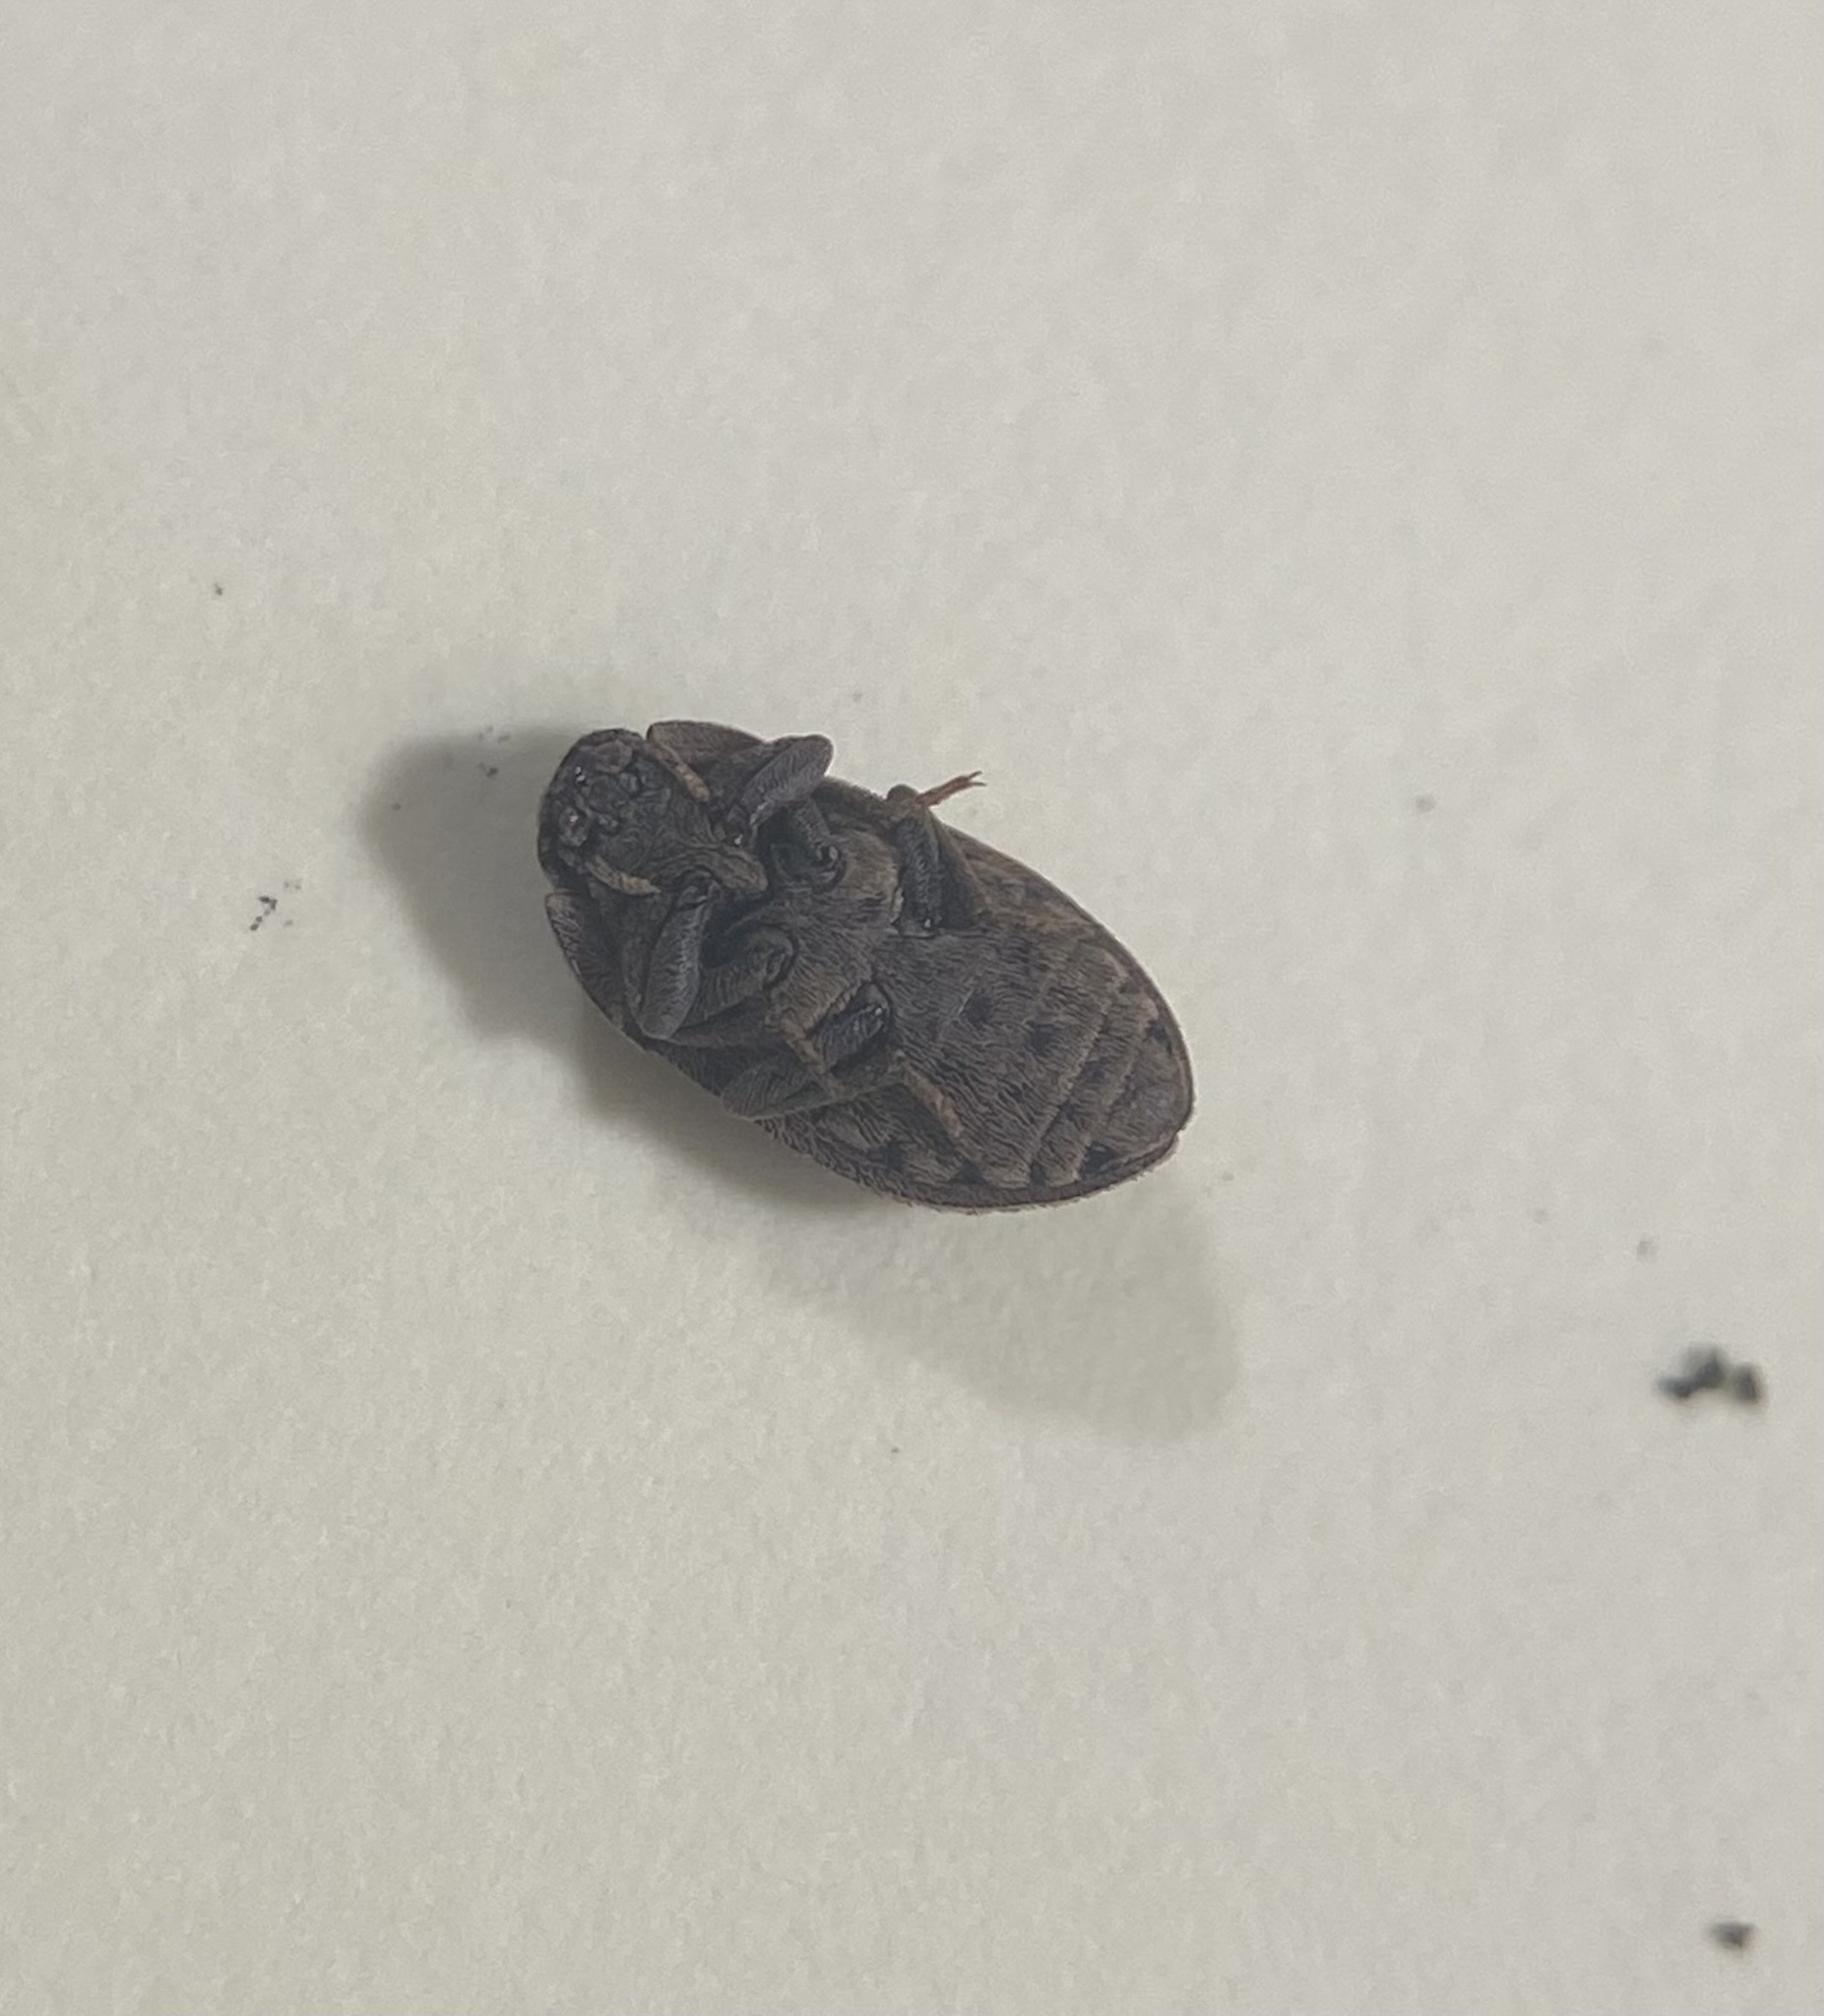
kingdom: Animalia
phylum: Arthropoda
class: Insecta
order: Coleoptera
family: Tenebrionidae
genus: Trichoton
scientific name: Trichoton sordidum
